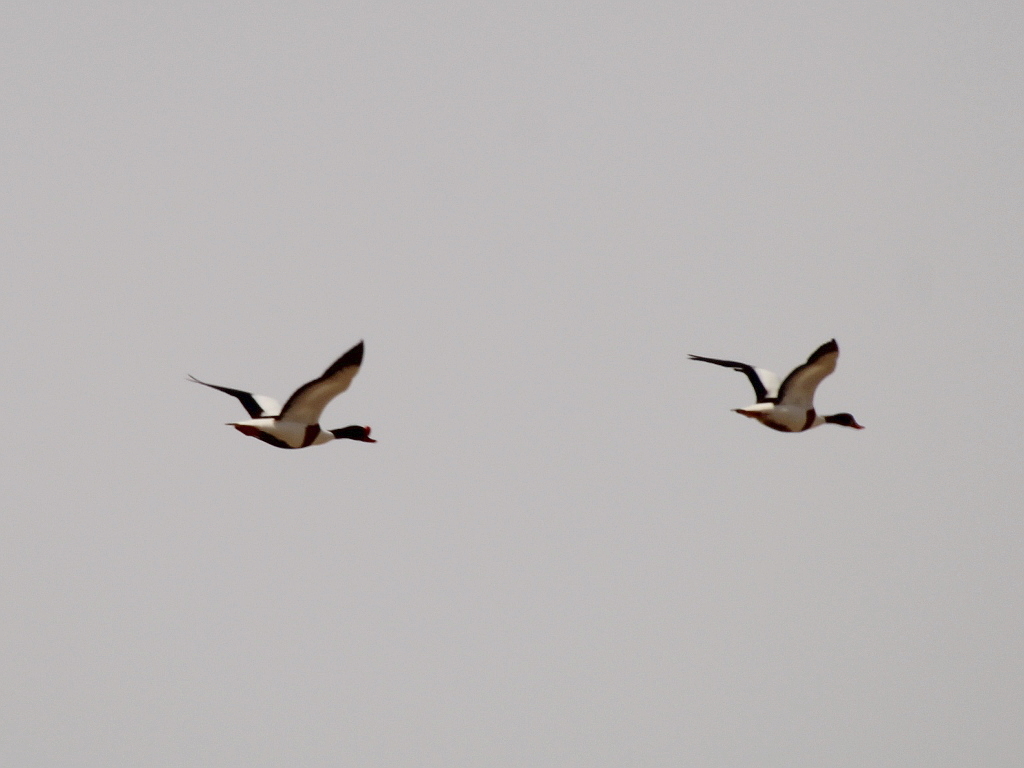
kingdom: Animalia
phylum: Chordata
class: Aves
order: Anseriformes
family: Anatidae
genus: Tadorna
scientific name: Tadorna tadorna
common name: Common shelduck
